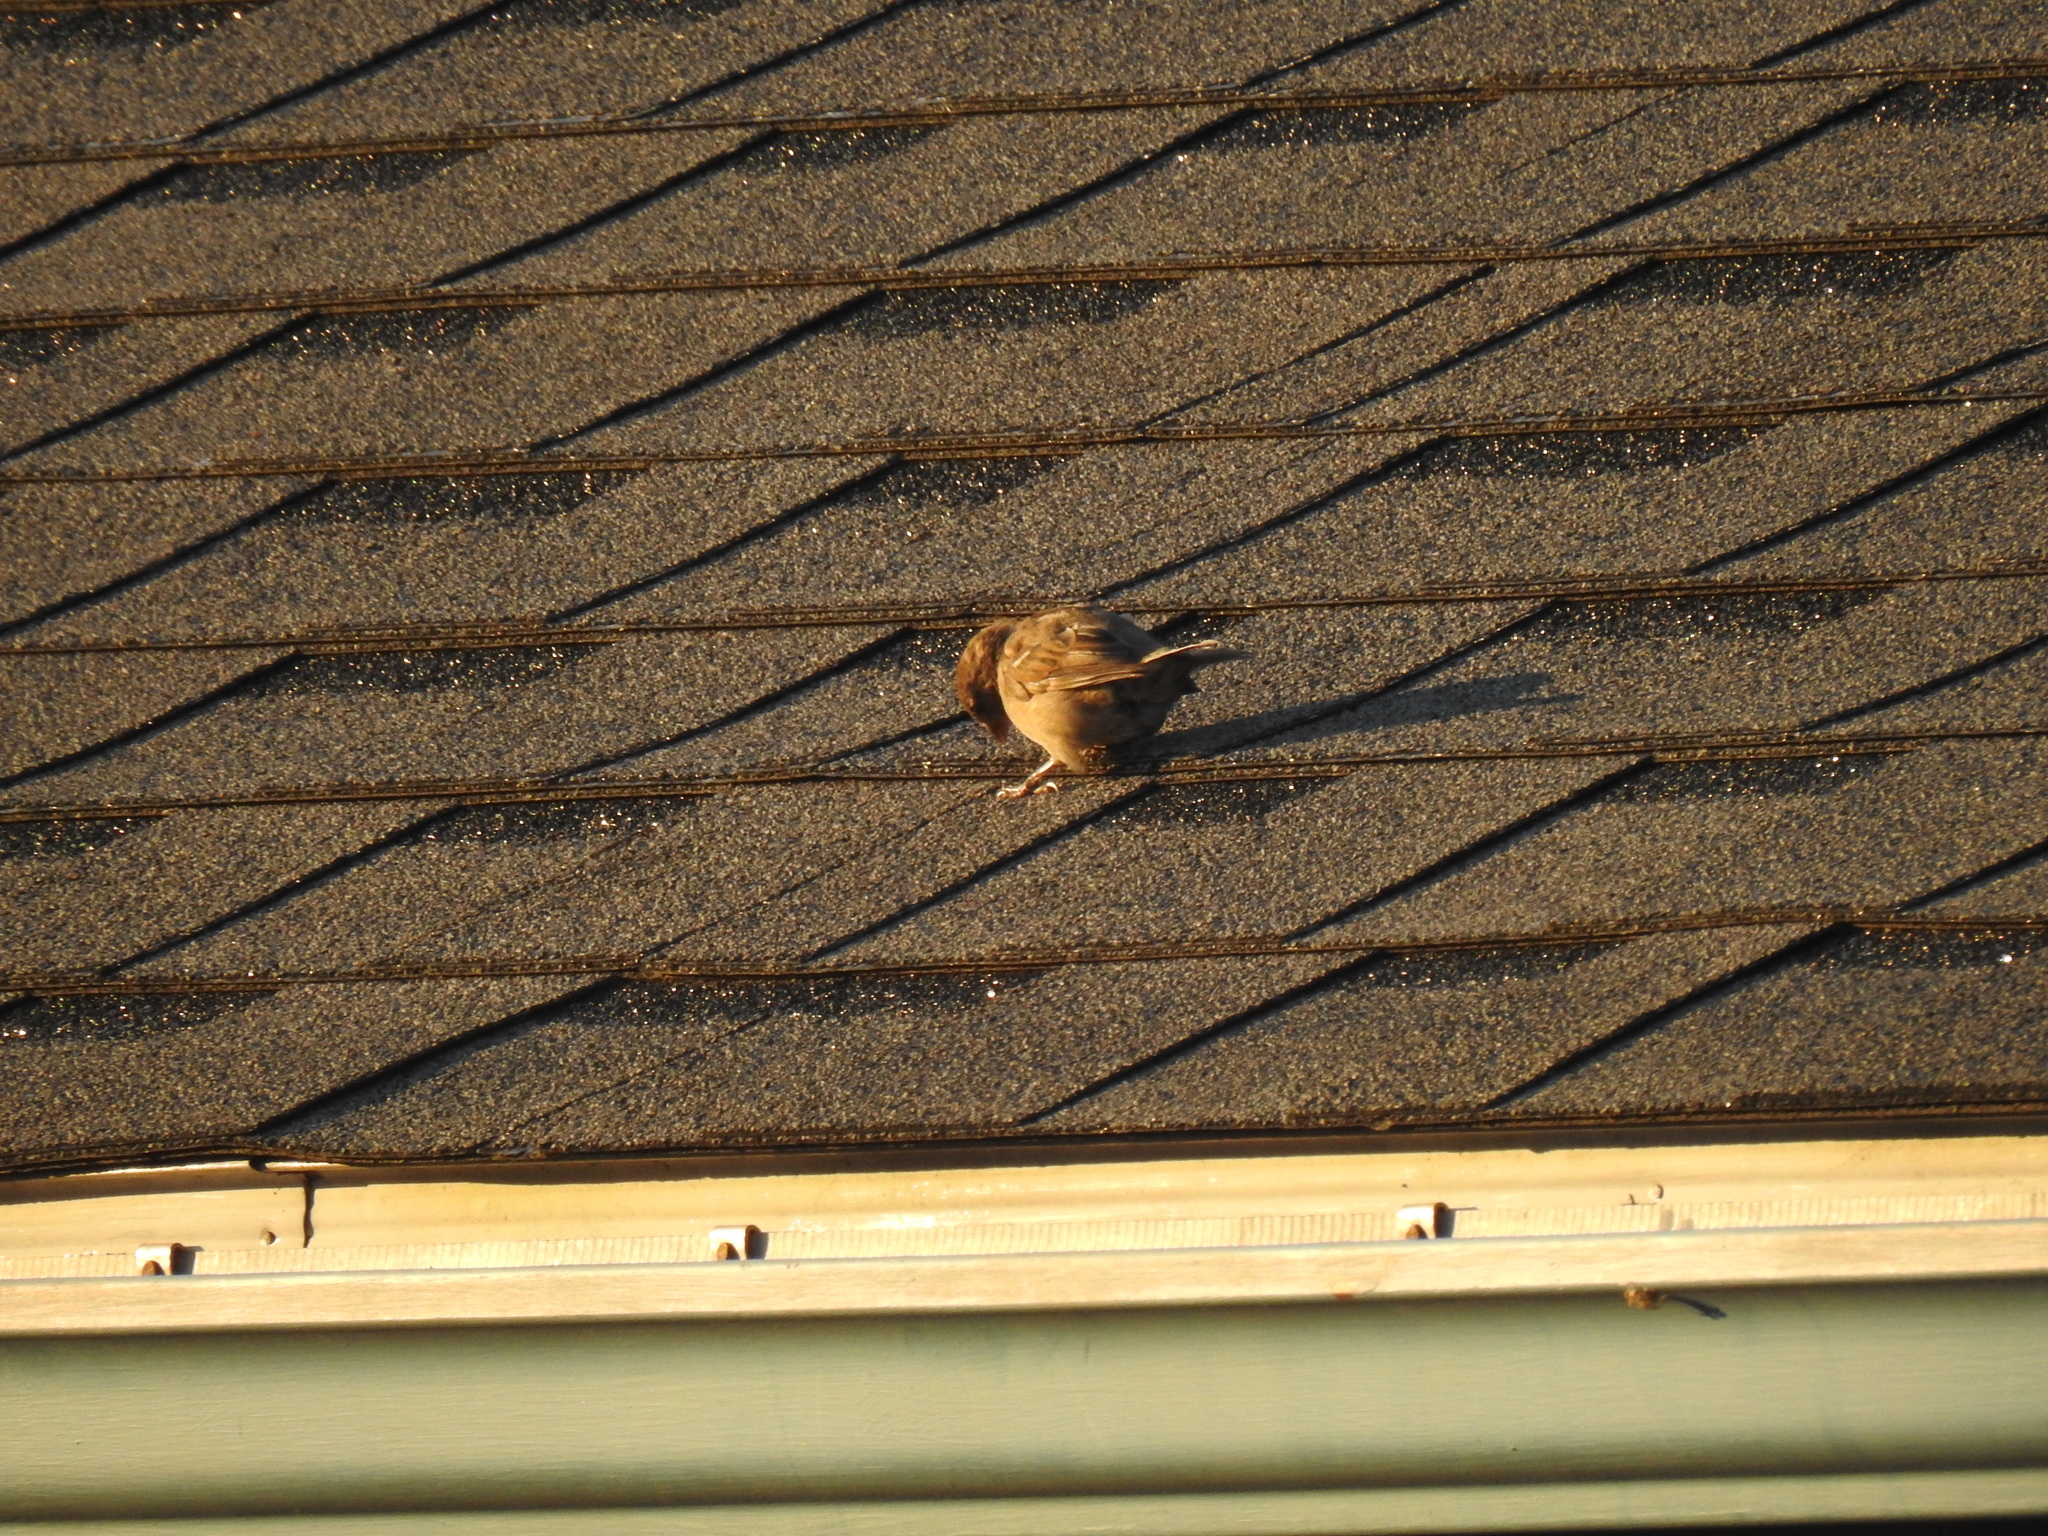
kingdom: Animalia
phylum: Chordata
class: Aves
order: Passeriformes
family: Passeridae
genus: Passer
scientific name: Passer domesticus
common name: House sparrow
